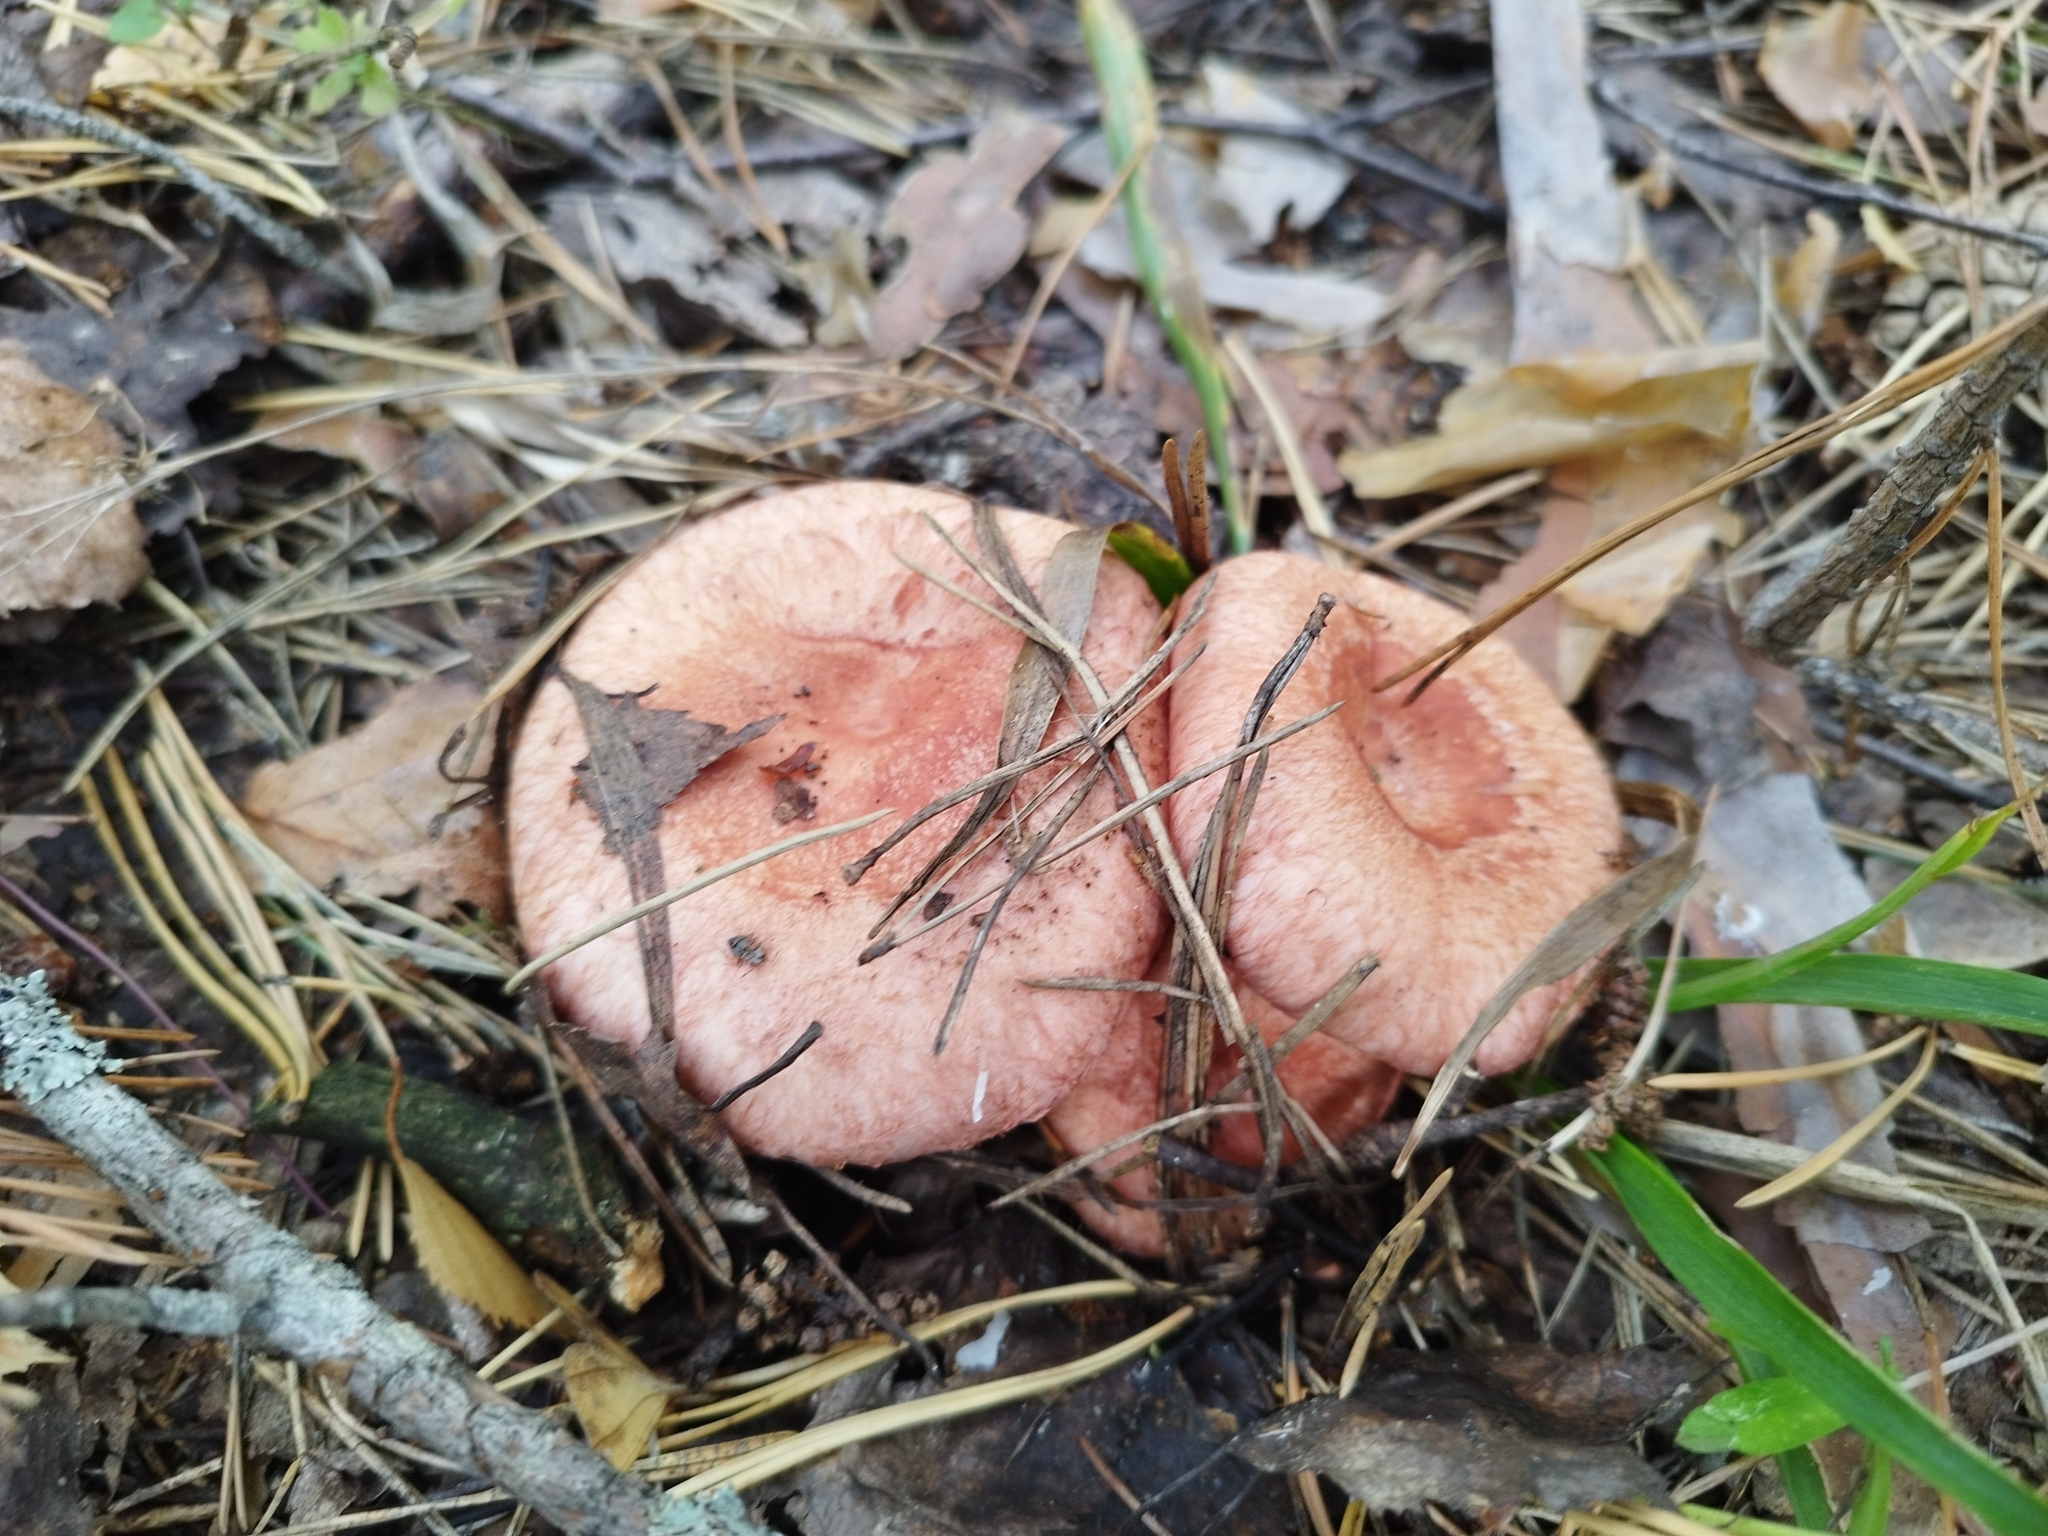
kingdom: Fungi
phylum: Basidiomycota
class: Agaricomycetes
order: Russulales
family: Russulaceae
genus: Lactarius
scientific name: Lactarius torminosus
